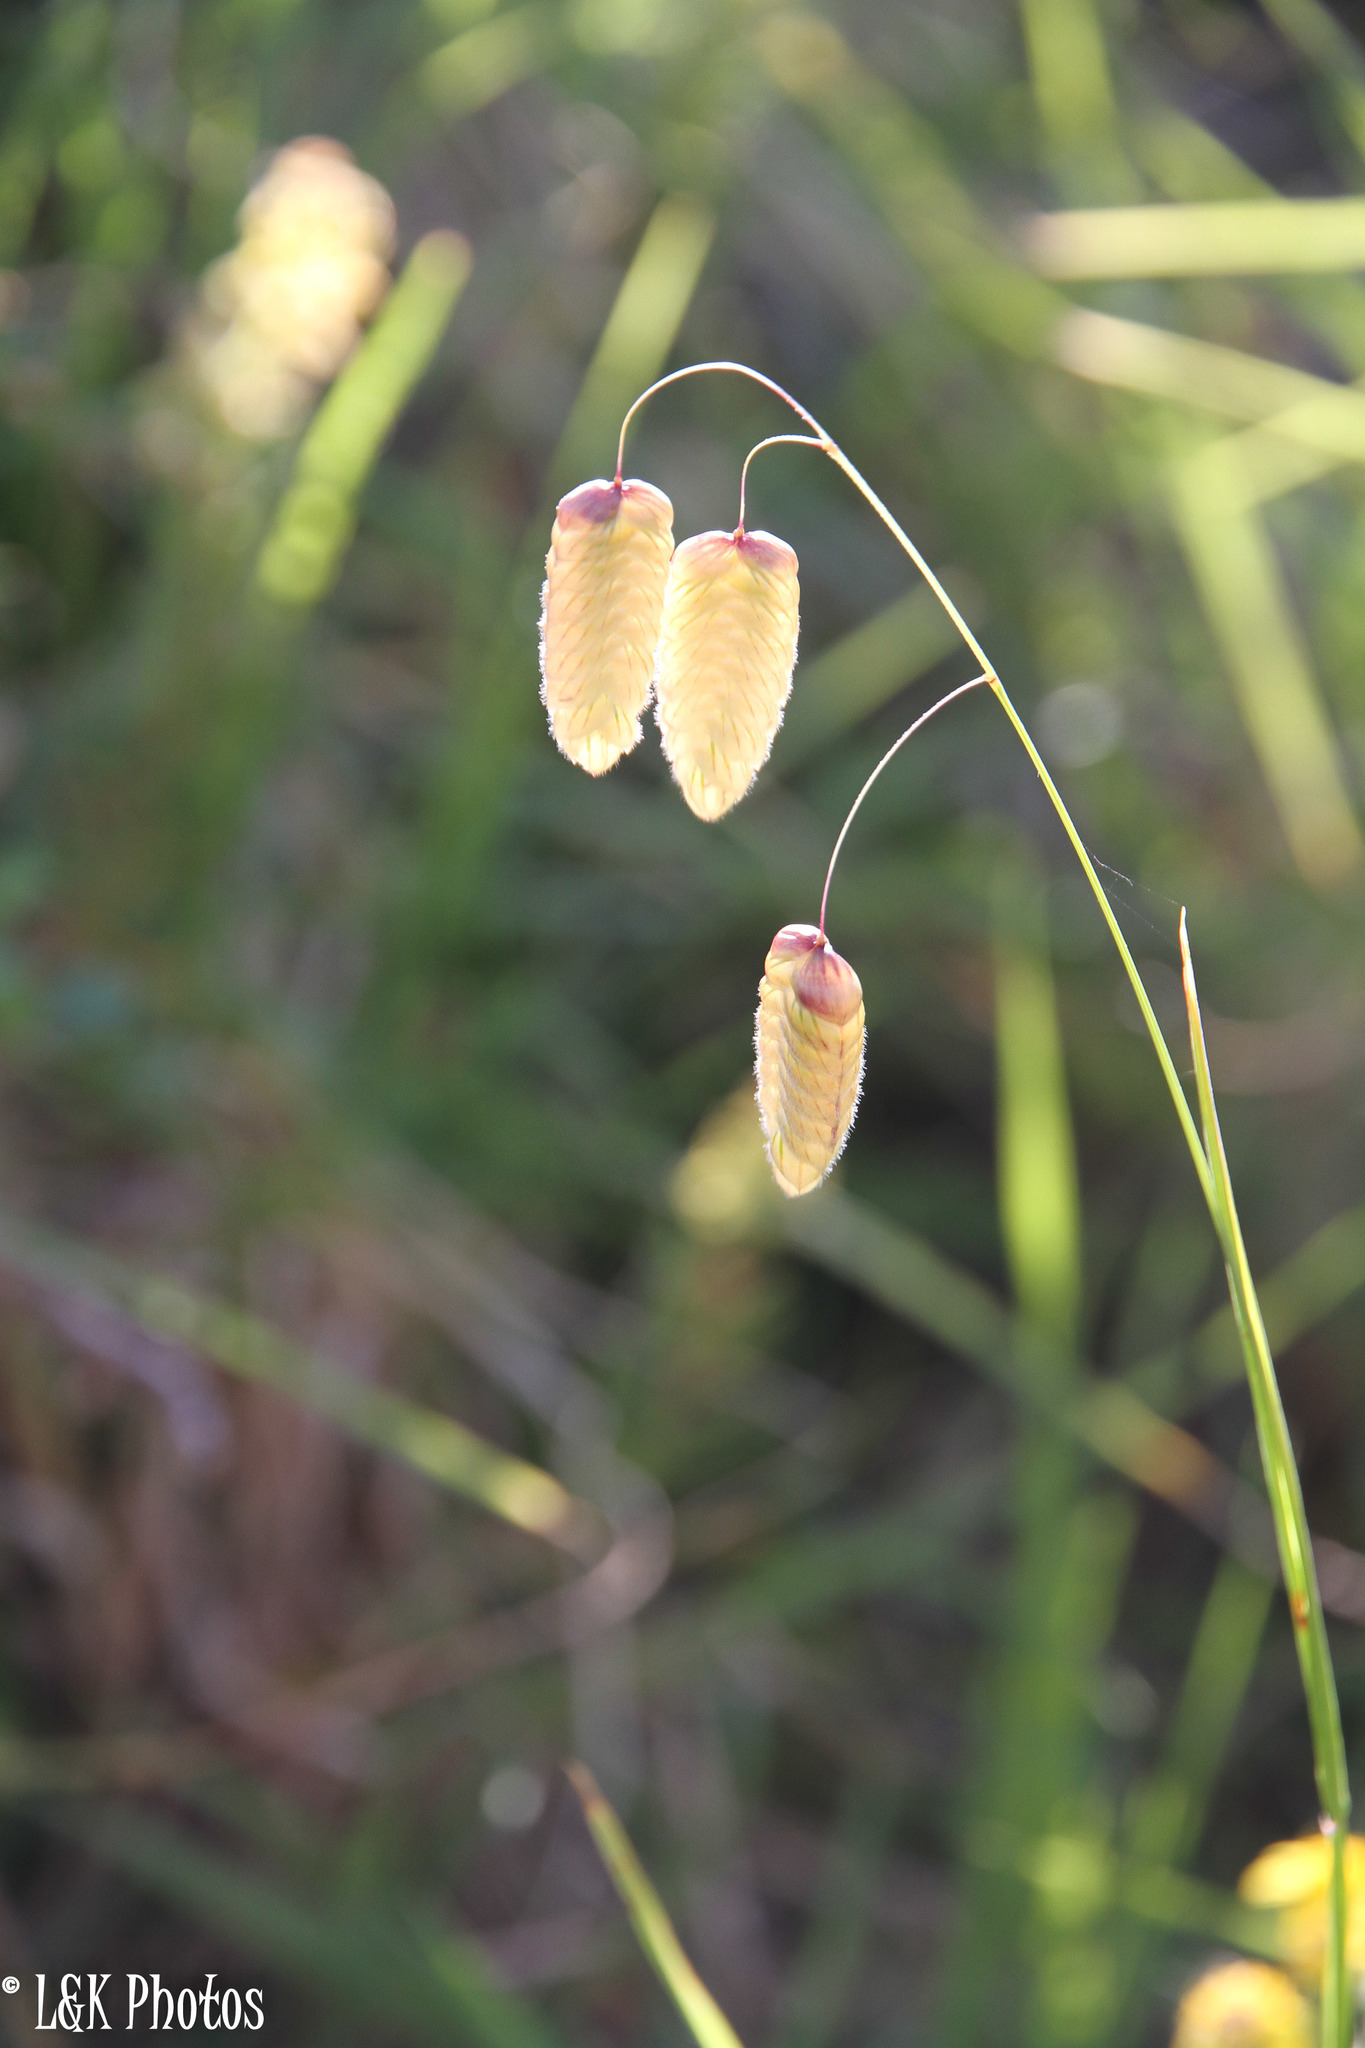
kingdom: Plantae
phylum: Tracheophyta
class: Liliopsida
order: Poales
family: Poaceae
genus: Briza
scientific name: Briza maxima
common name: Big quakinggrass
